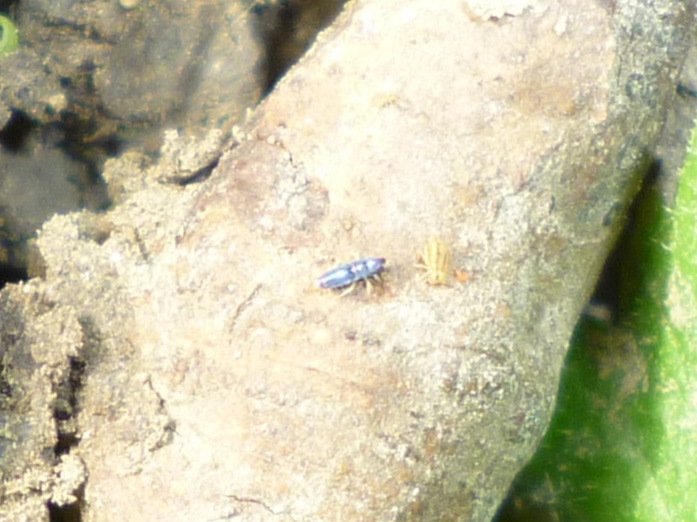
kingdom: Animalia
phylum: Arthropoda
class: Collembola
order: Entomobryomorpha
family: Entomobryidae
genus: Lepidocyrtus
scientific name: Lepidocyrtus paradoxus
